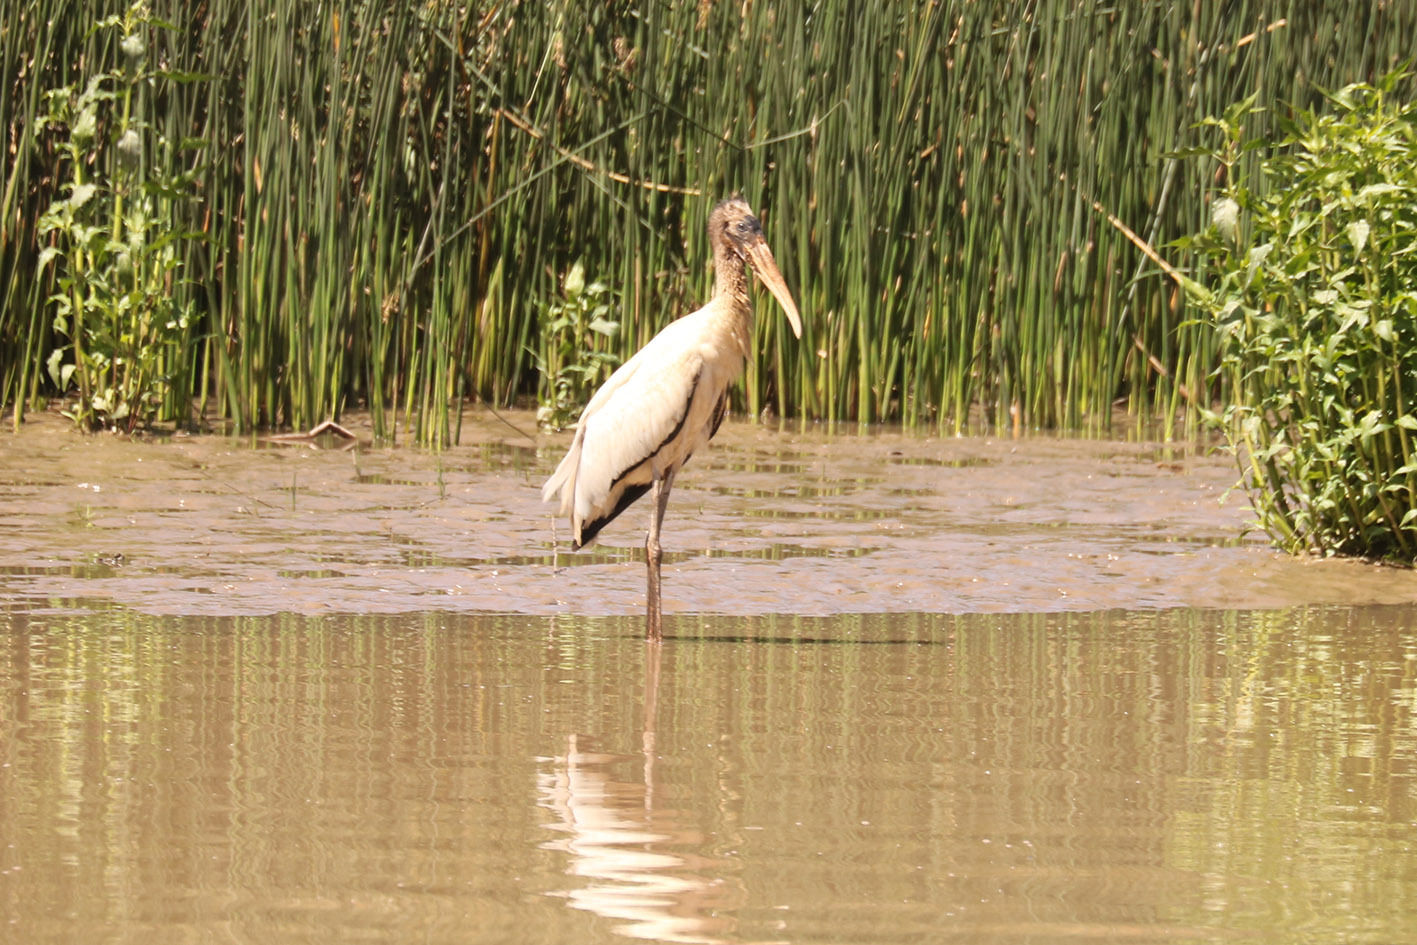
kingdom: Animalia
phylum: Chordata
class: Aves
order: Ciconiiformes
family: Ciconiidae
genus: Mycteria
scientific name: Mycteria americana
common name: Wood stork
